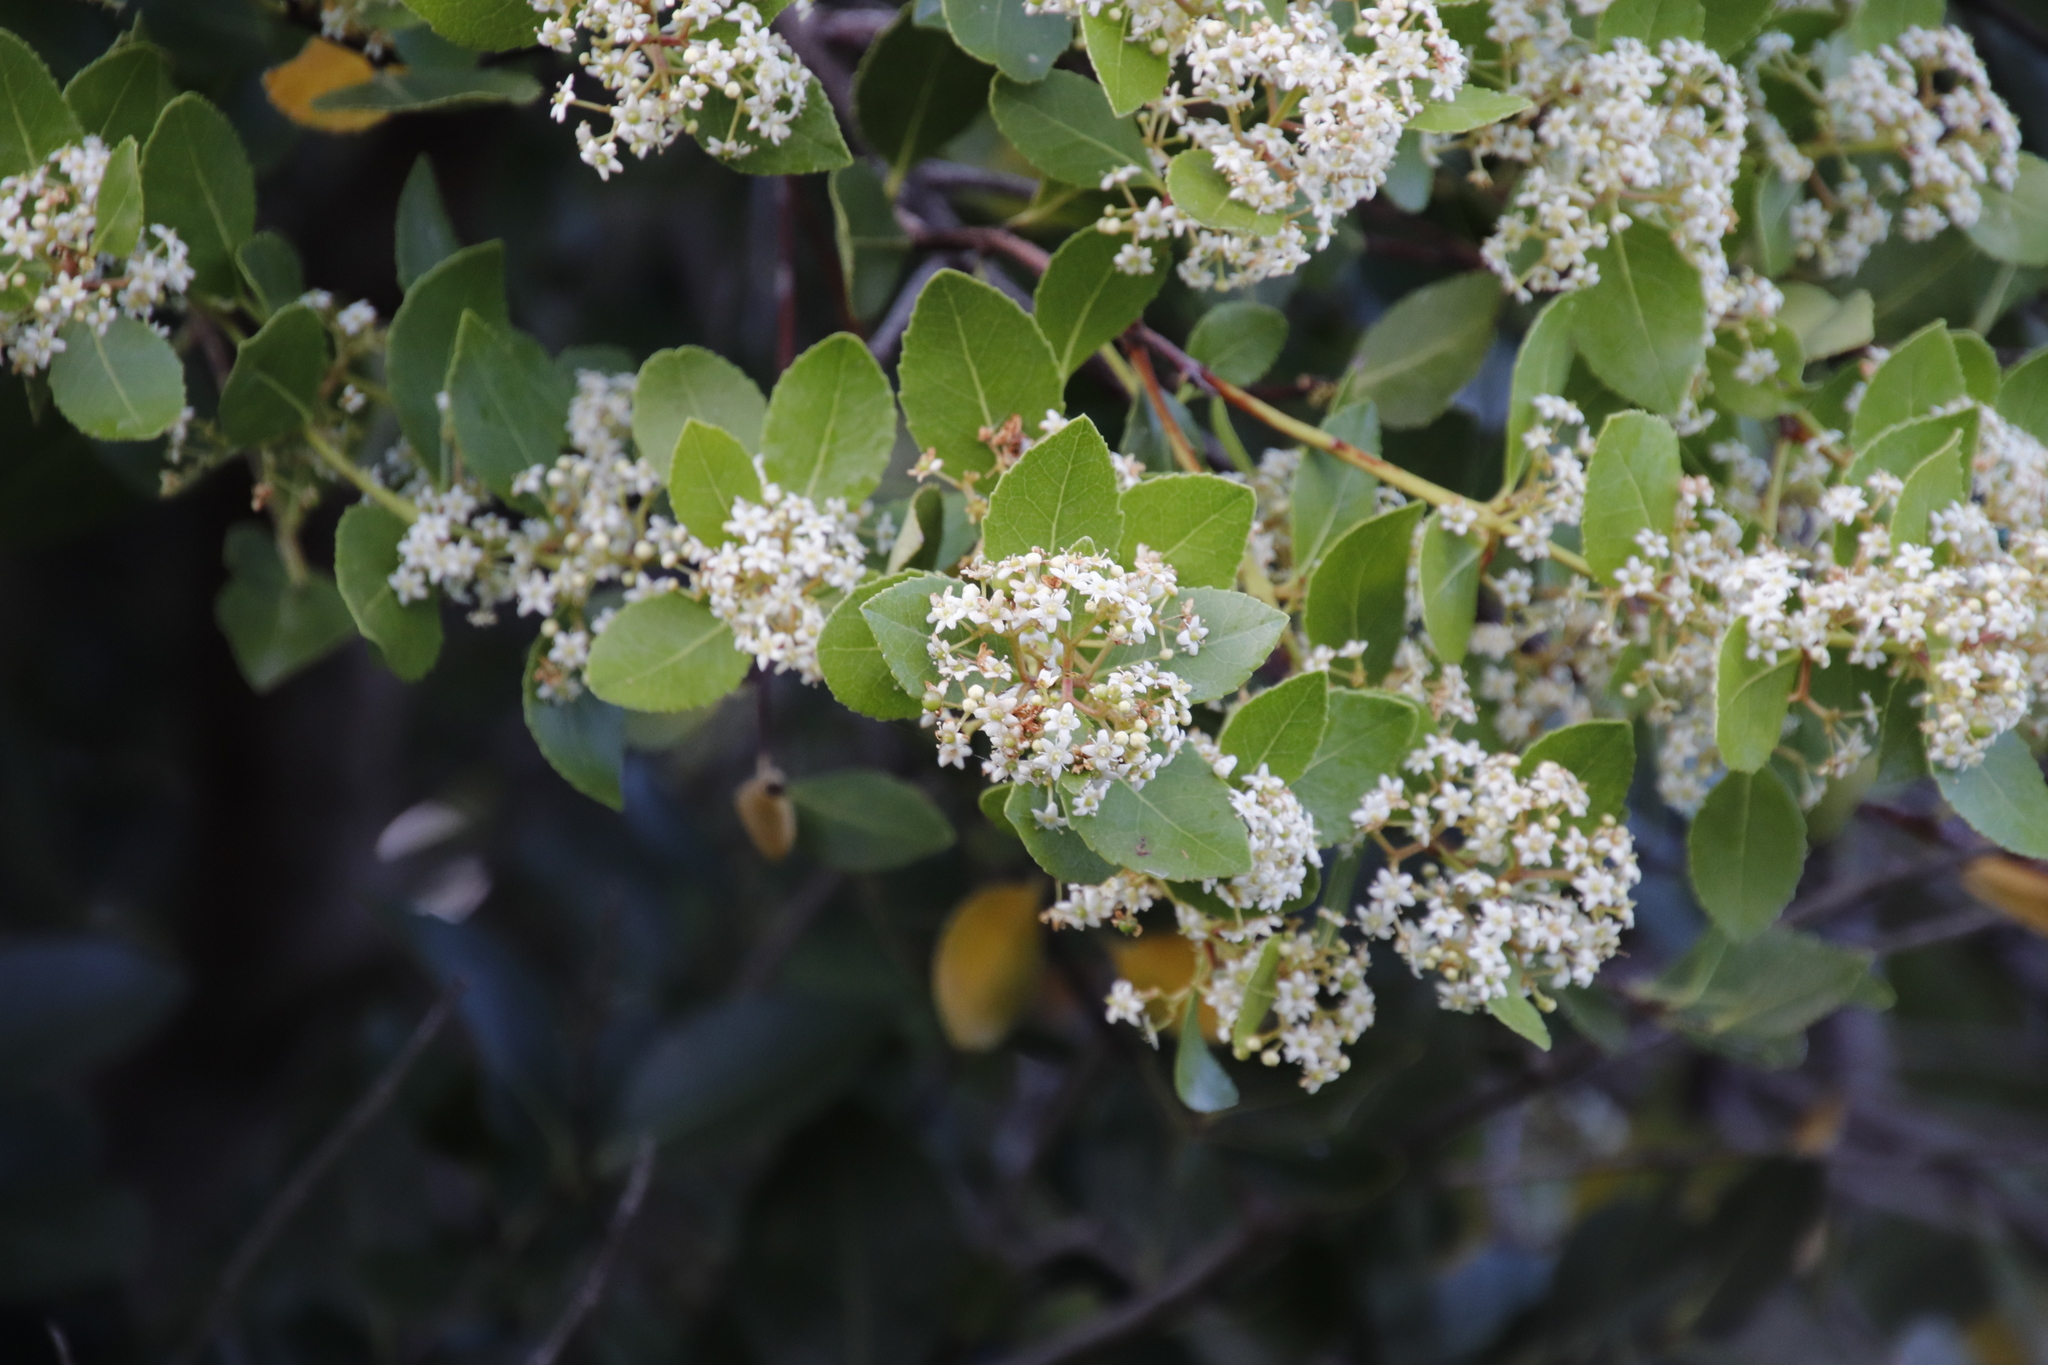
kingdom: Plantae
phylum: Tracheophyta
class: Magnoliopsida
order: Celastrales
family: Celastraceae
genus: Cassine
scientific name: Cassine peragua
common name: Cape saffron
